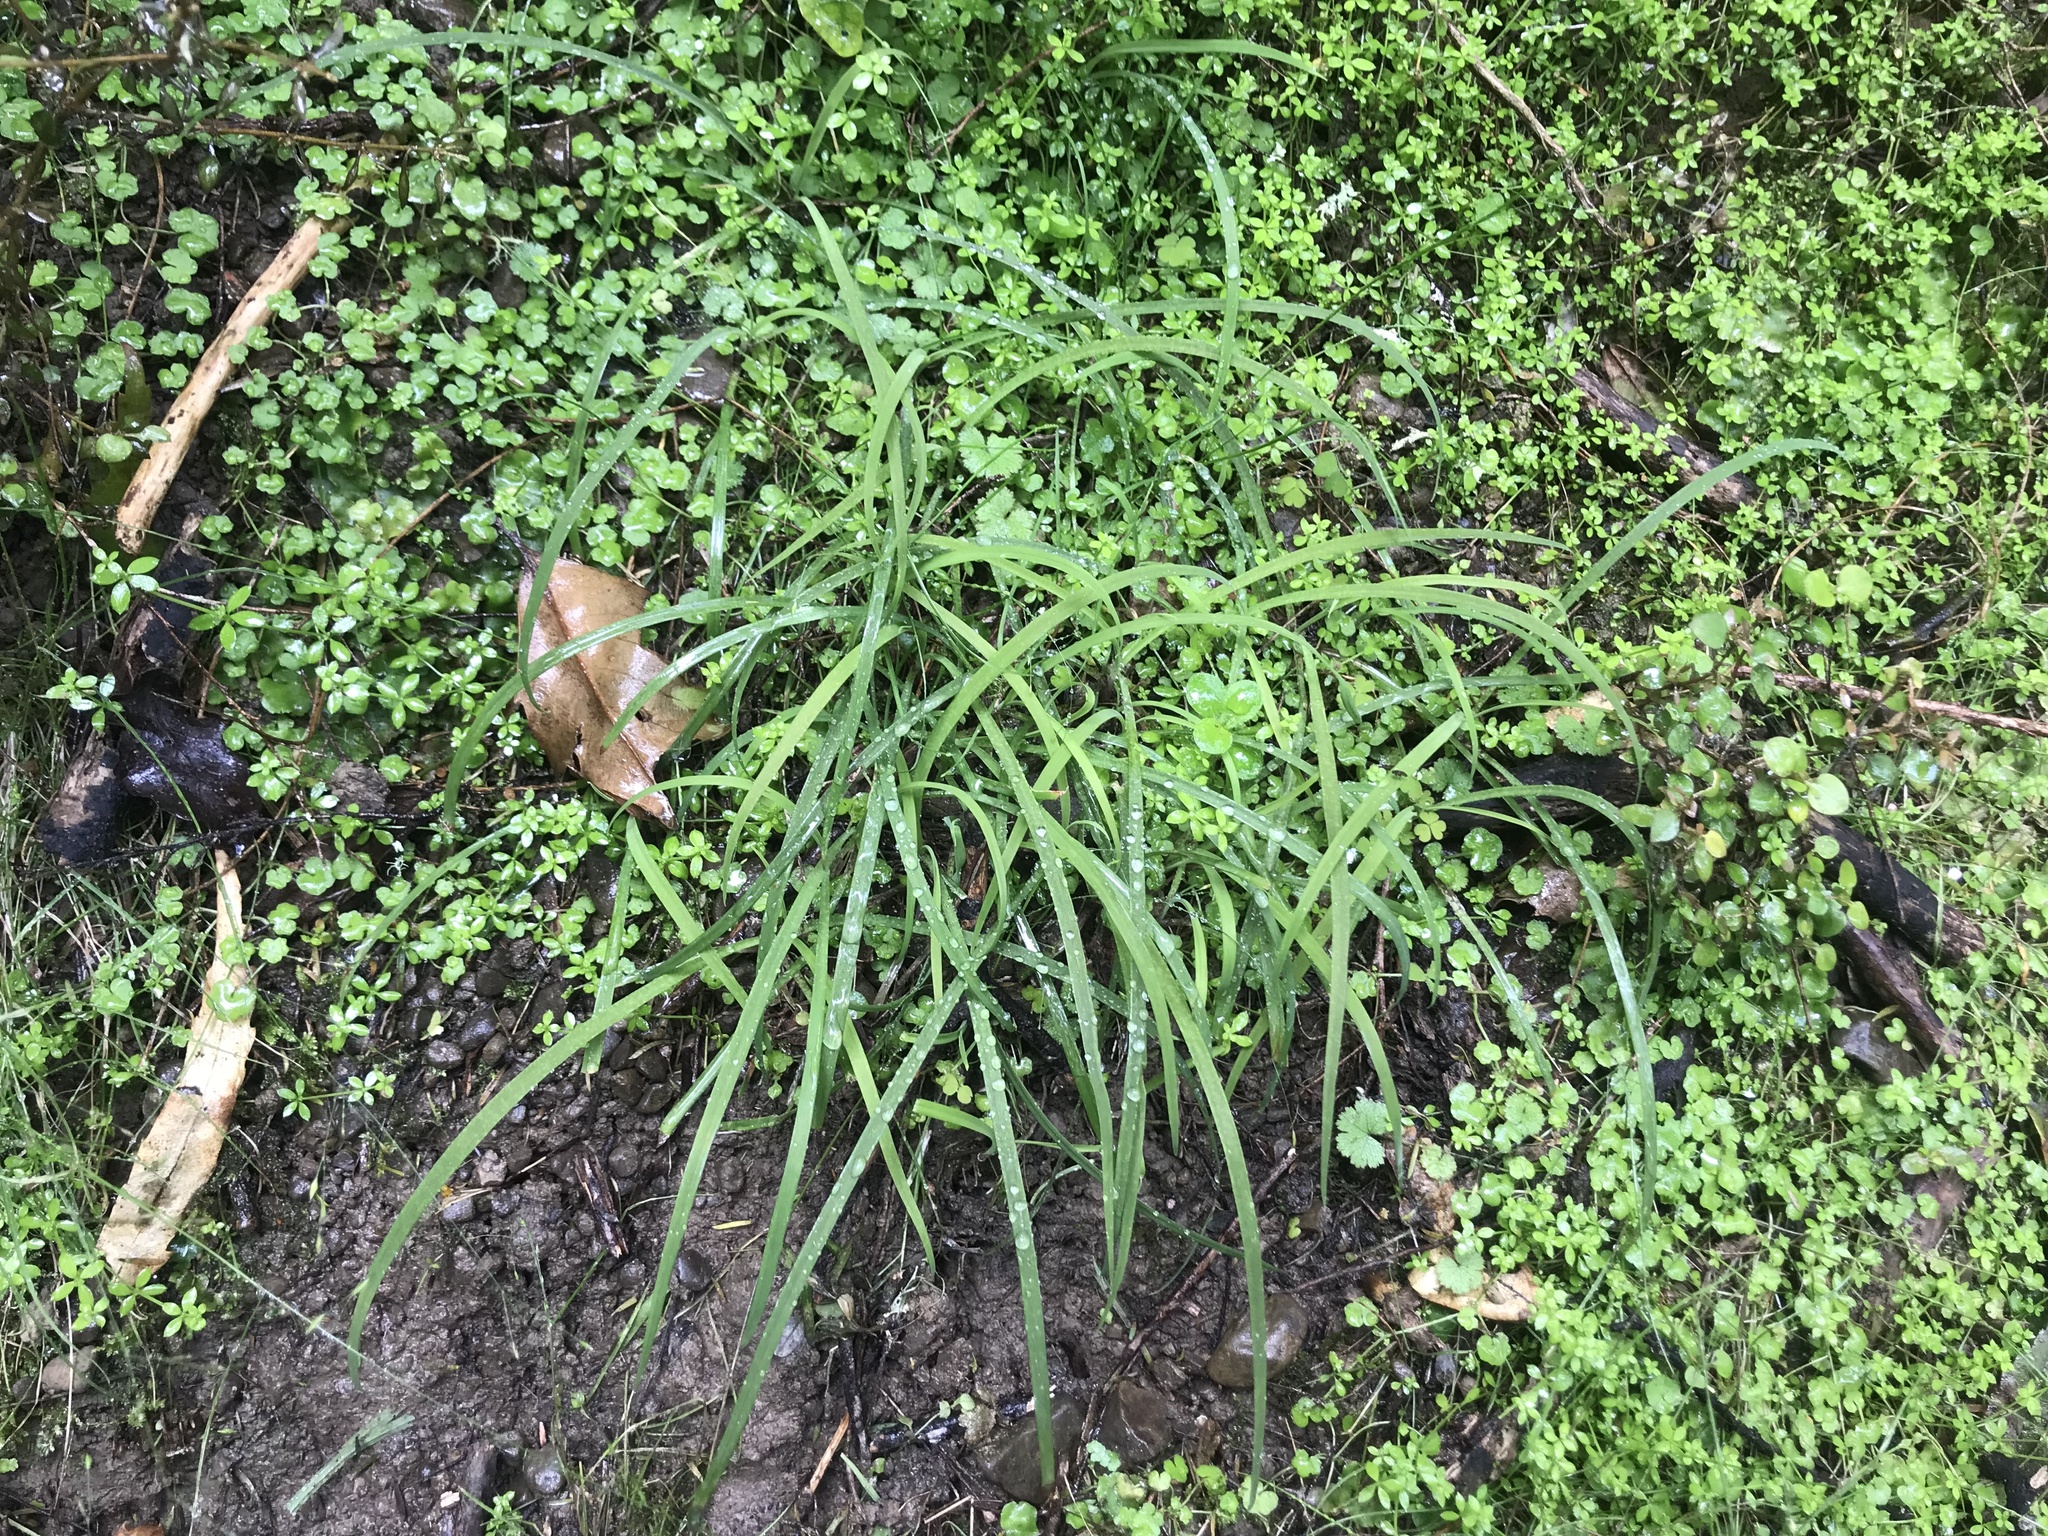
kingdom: Plantae
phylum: Tracheophyta
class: Liliopsida
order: Asparagales
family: Asparagaceae
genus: Arthropodium
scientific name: Arthropodium candidum
